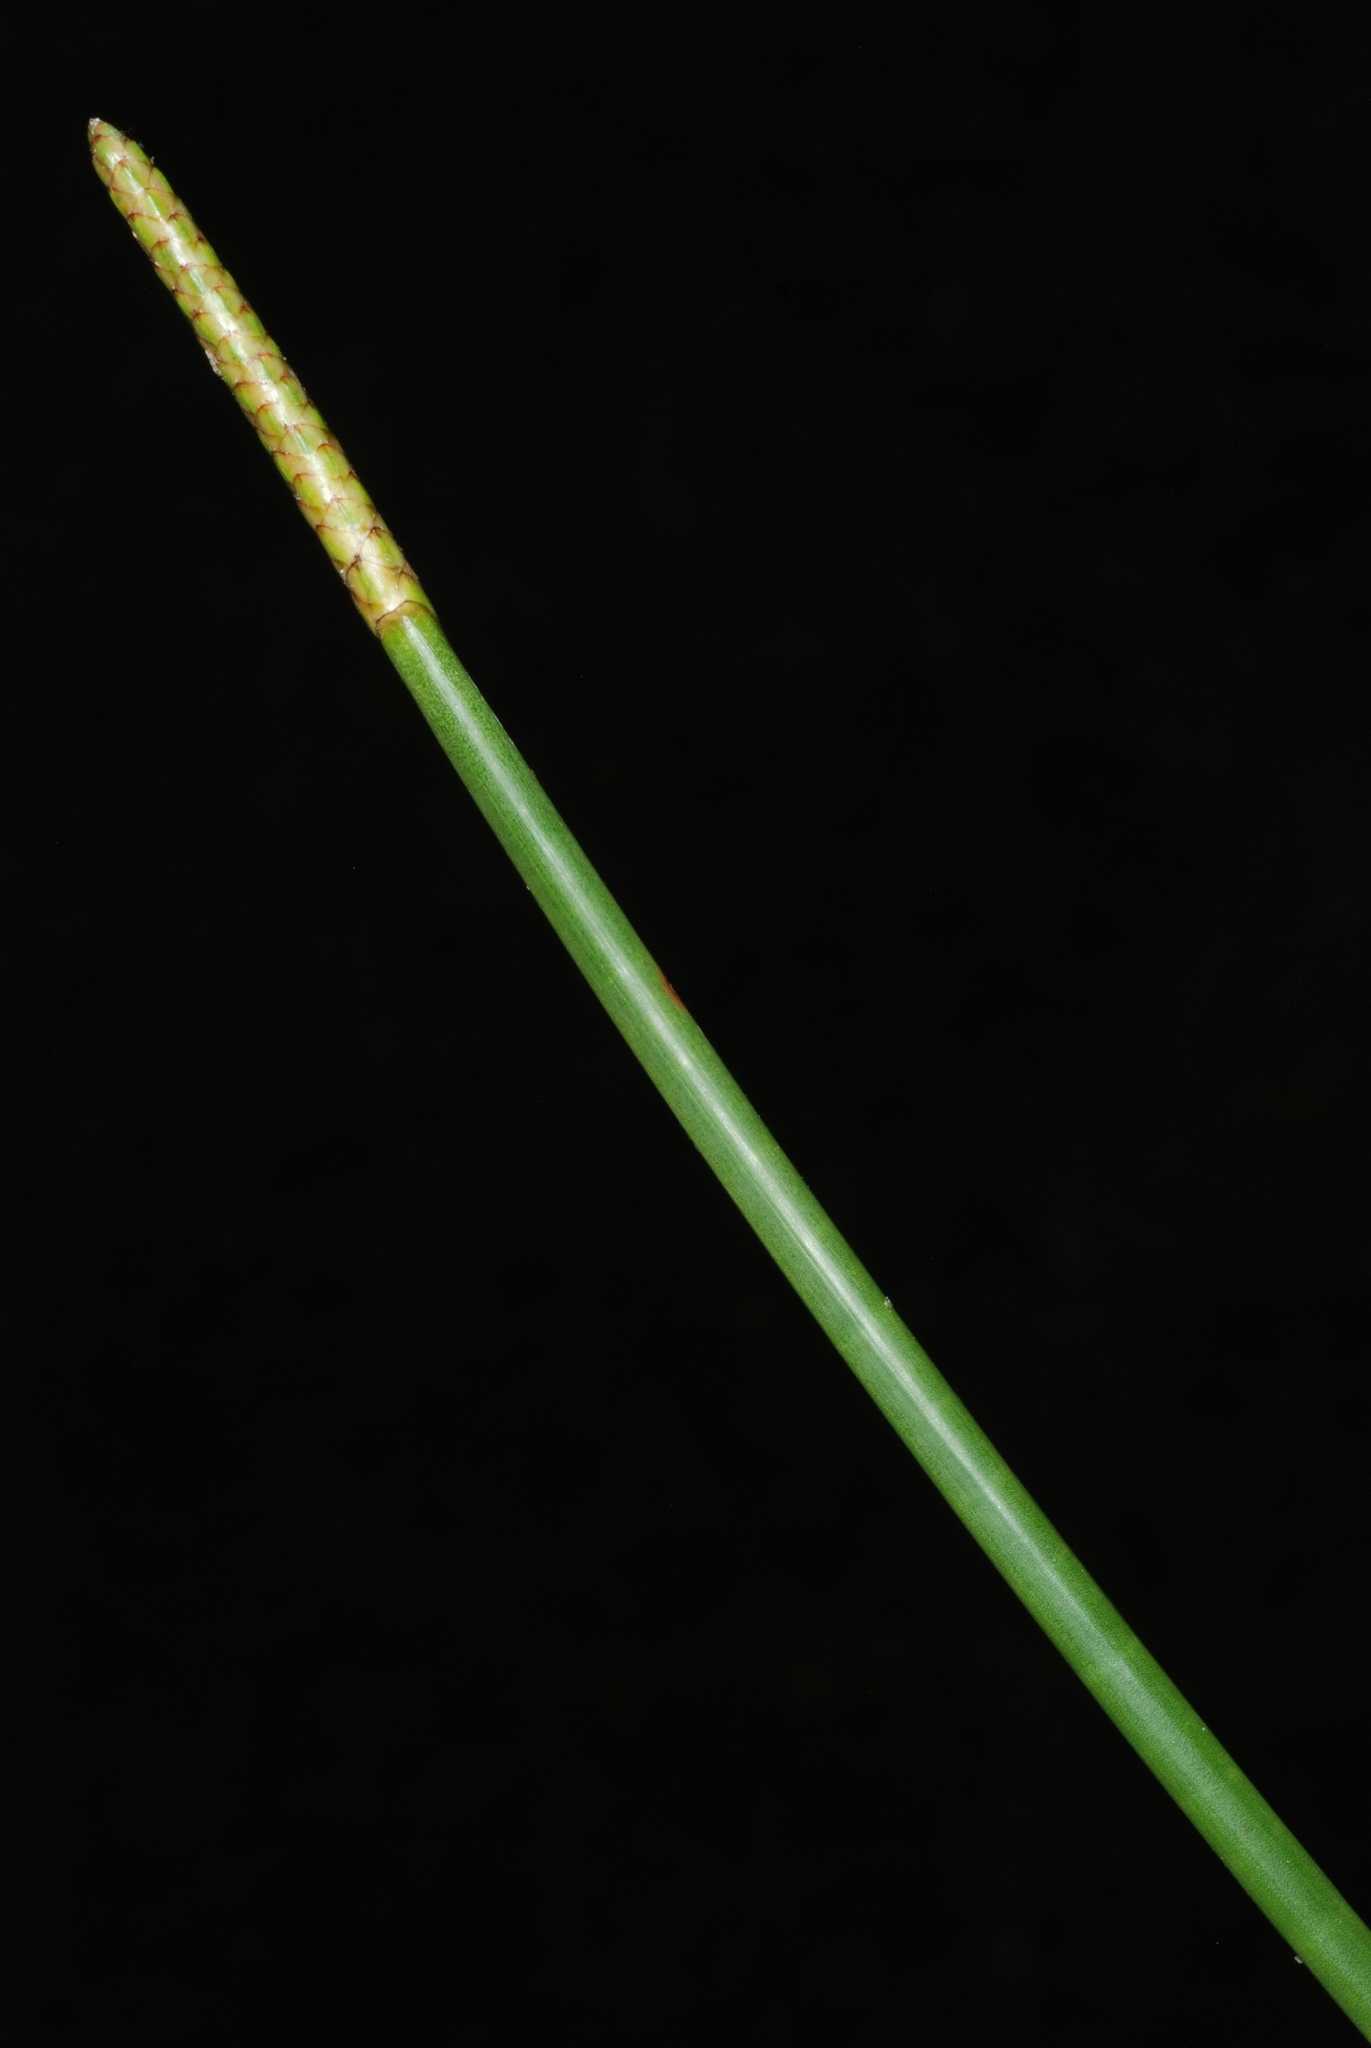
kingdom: Plantae
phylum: Tracheophyta
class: Liliopsida
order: Poales
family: Cyperaceae
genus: Eleocharis
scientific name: Eleocharis interstincta
